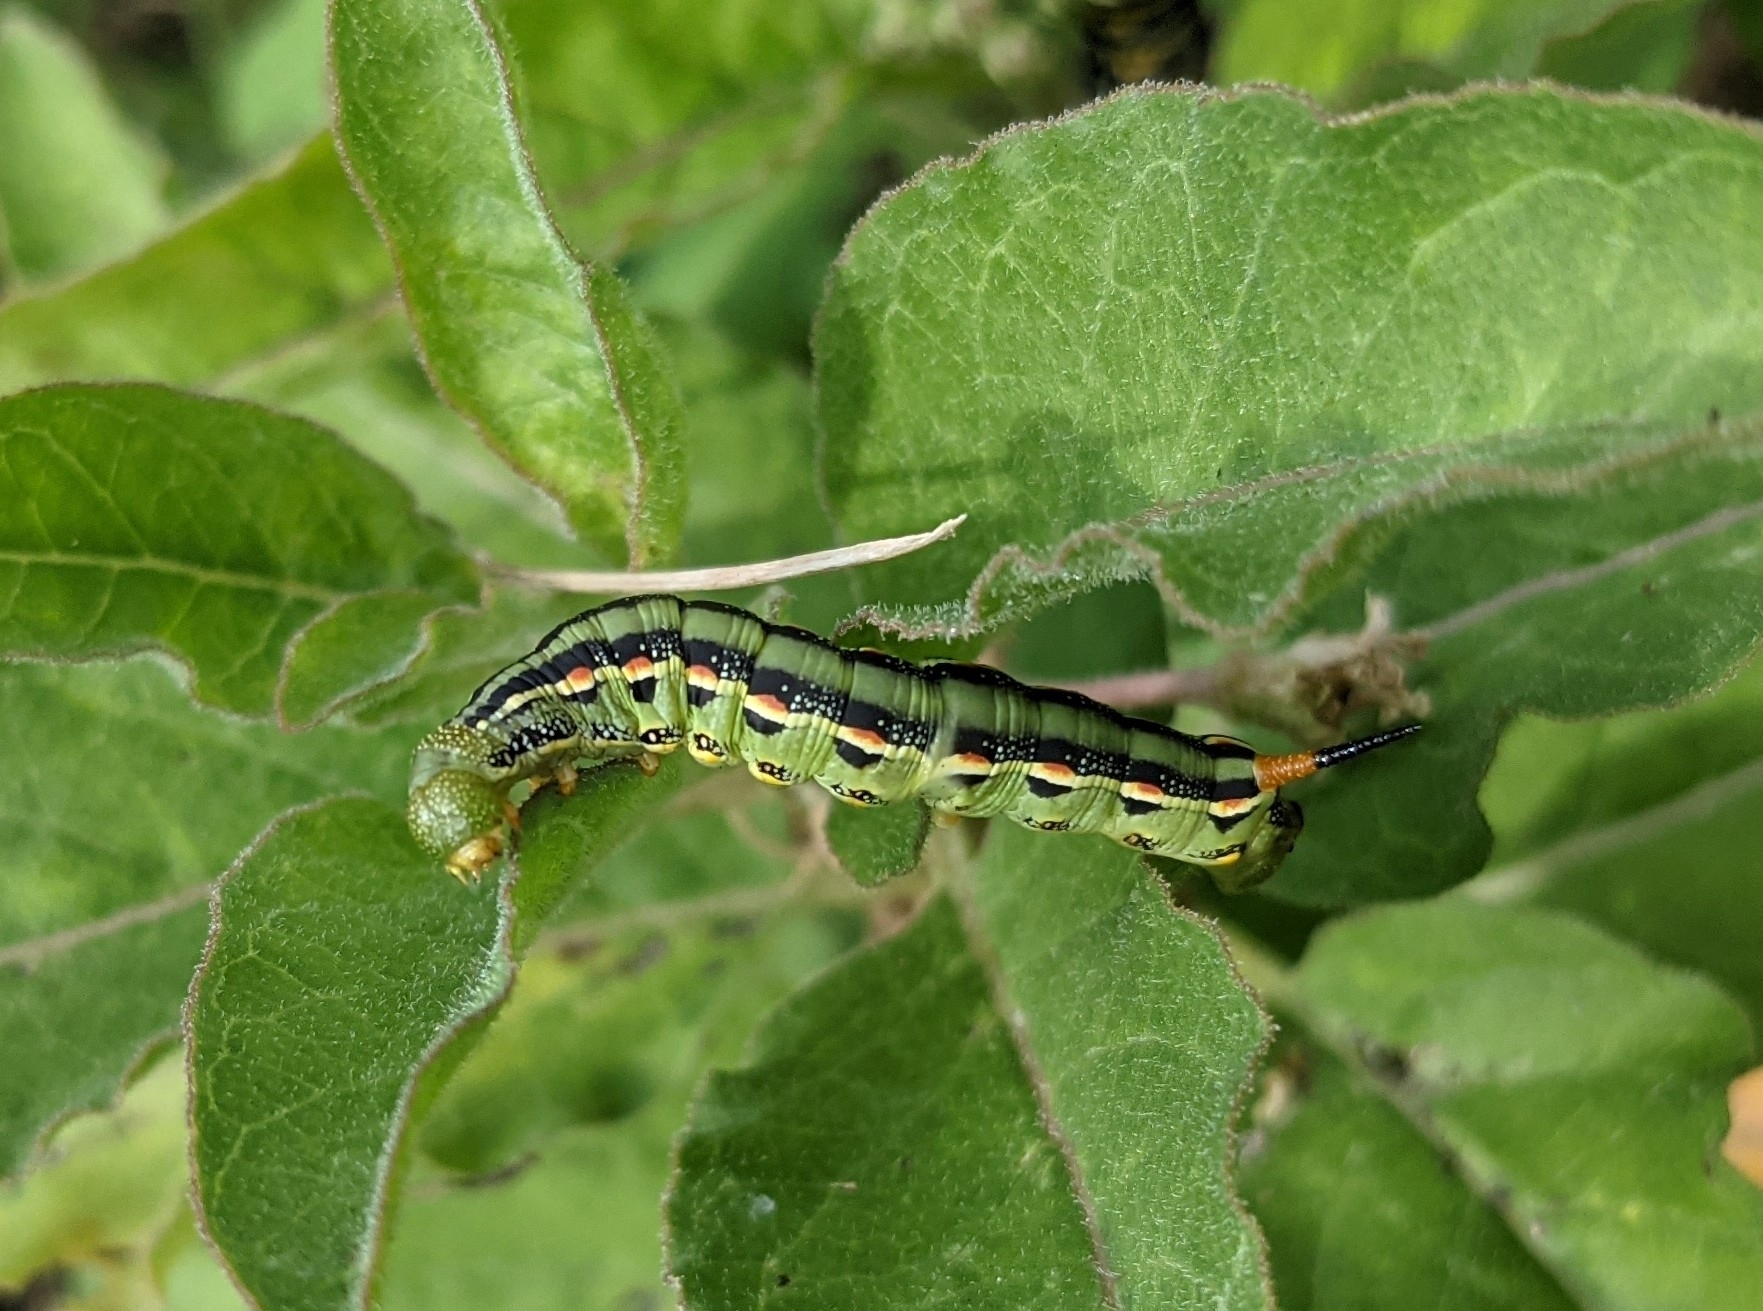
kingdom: Animalia
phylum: Arthropoda
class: Insecta
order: Lepidoptera
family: Sphingidae
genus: Hyles
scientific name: Hyles lineata
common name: White-lined sphinx
